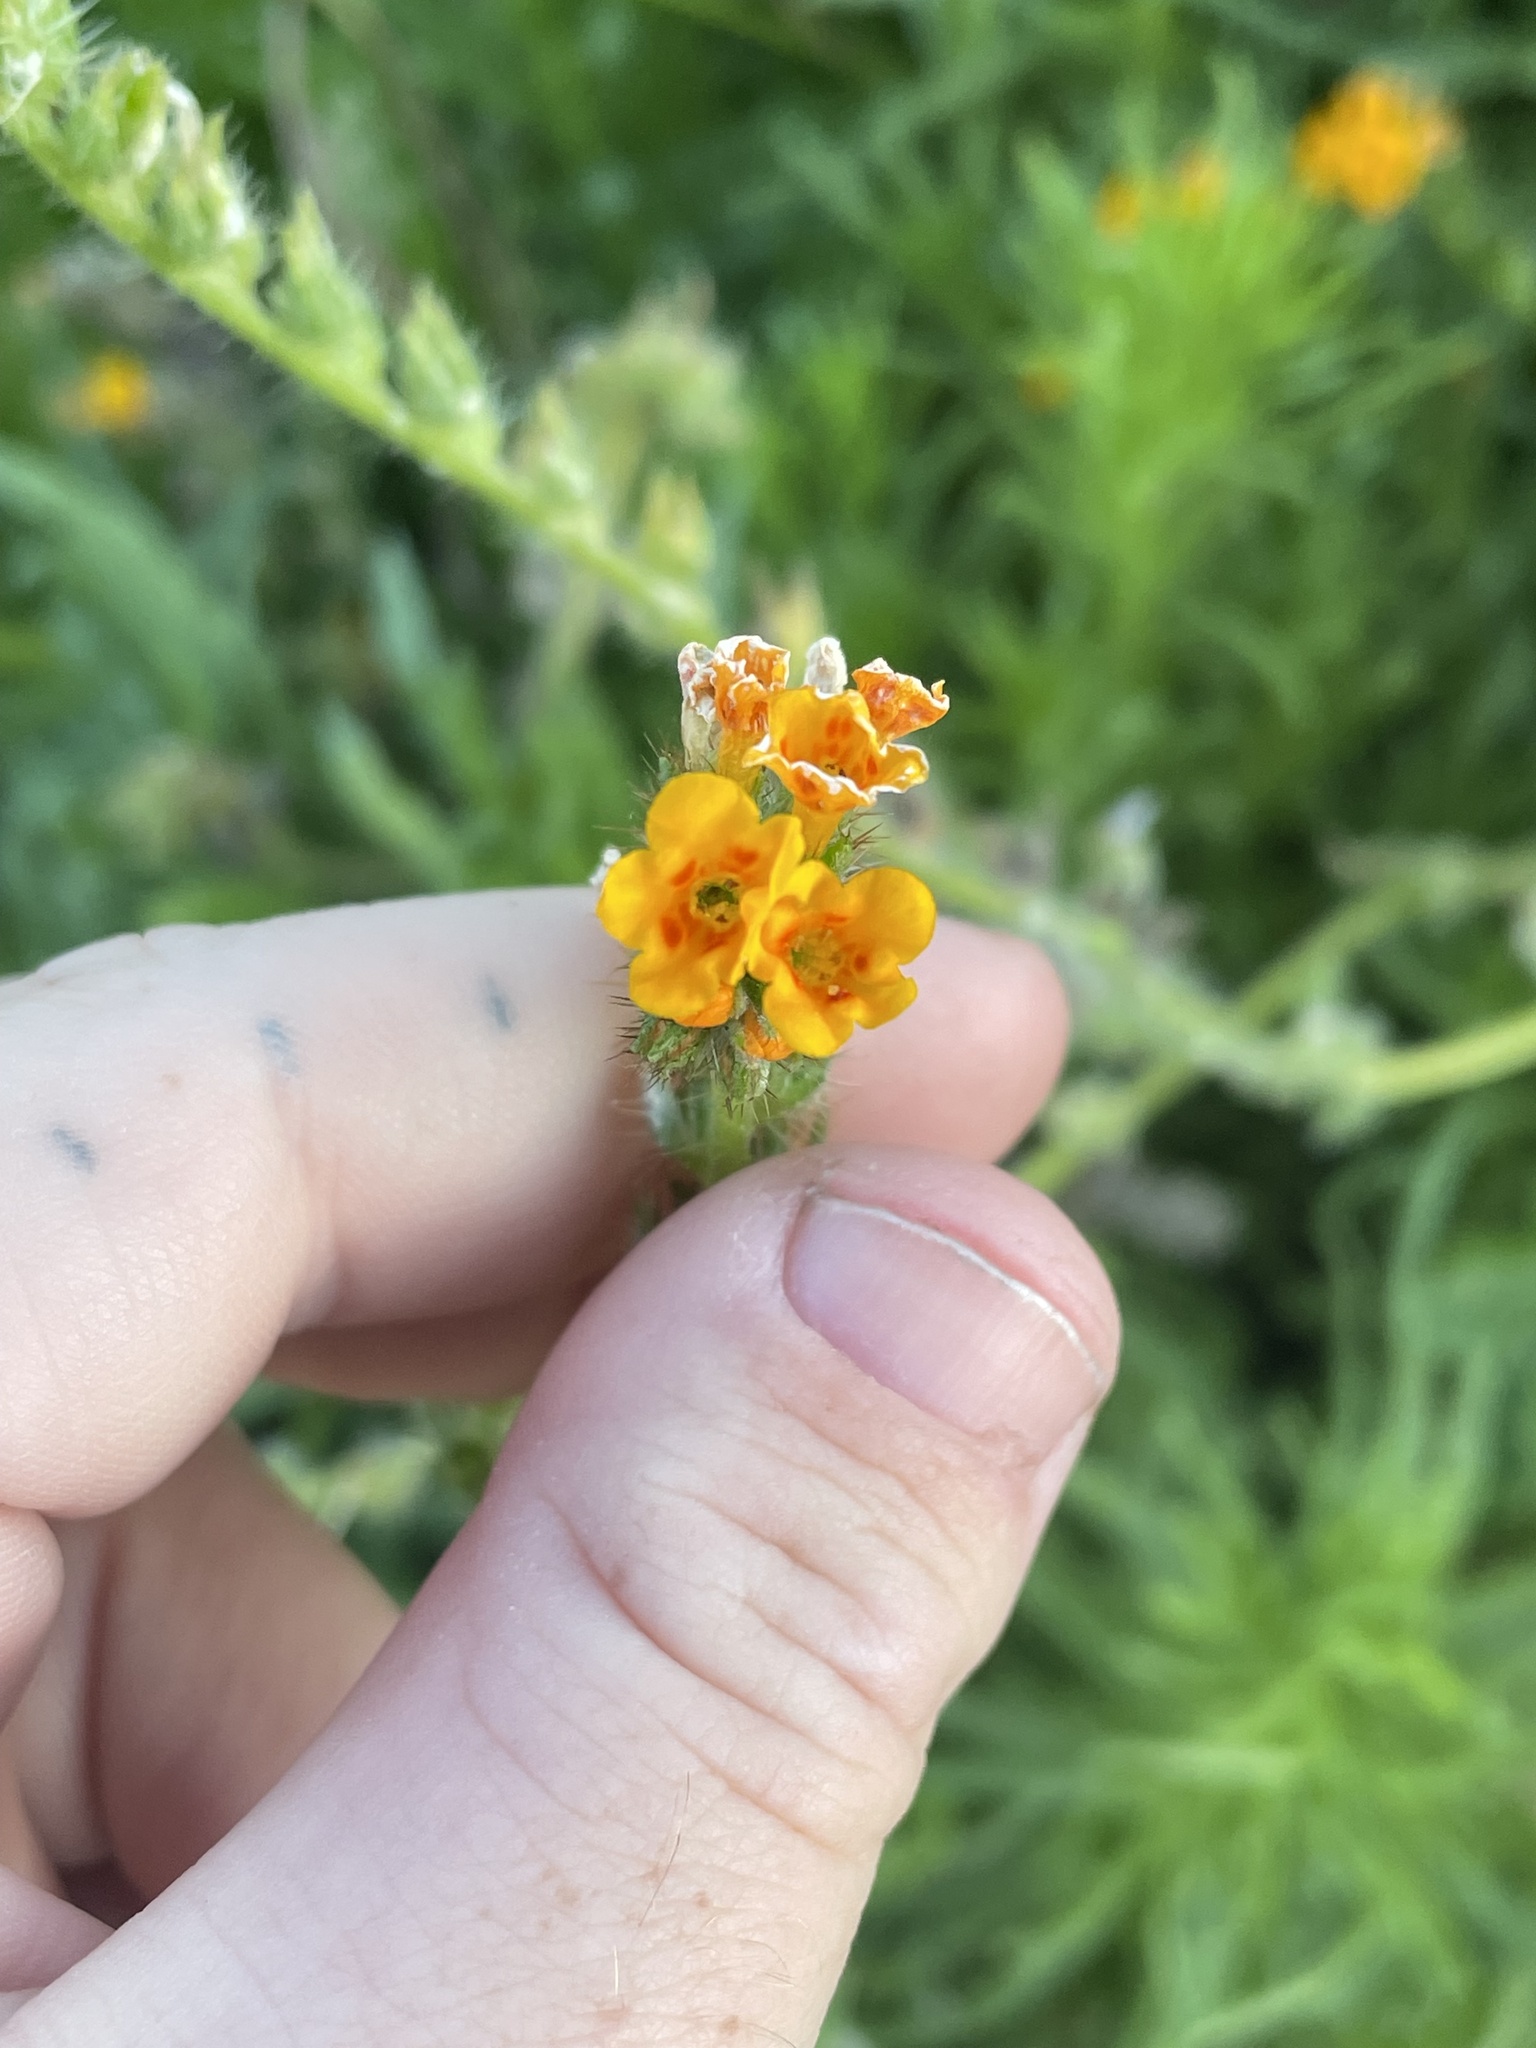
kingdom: Plantae
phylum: Tracheophyta
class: Magnoliopsida
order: Boraginales
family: Boraginaceae
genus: Amsinckia
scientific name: Amsinckia menziesii
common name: Menzies' fiddleneck
